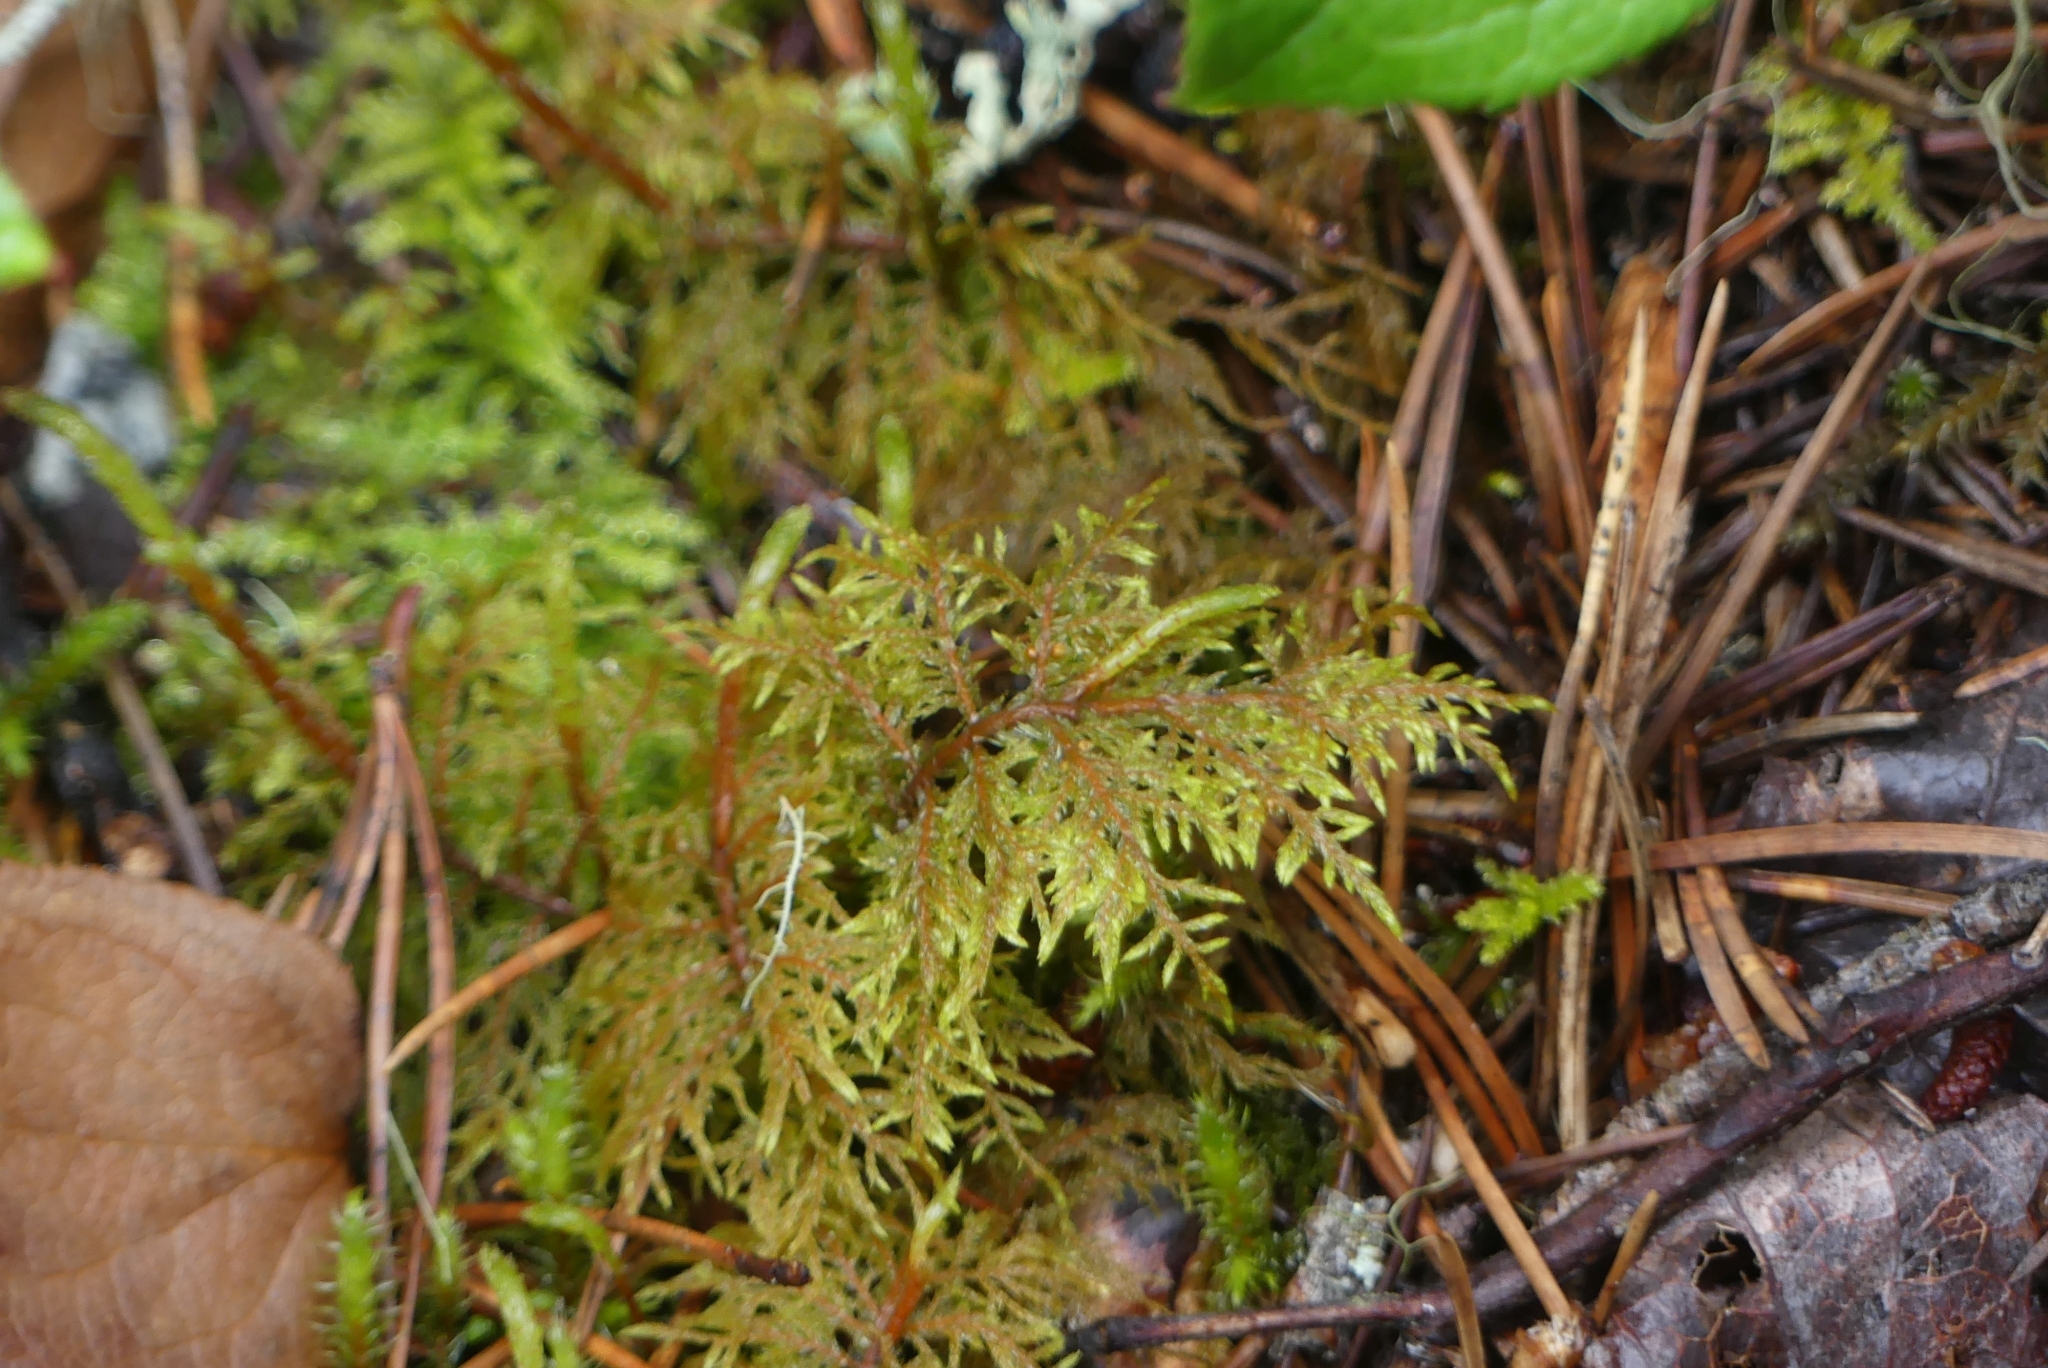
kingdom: Plantae
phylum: Bryophyta
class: Bryopsida
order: Hypnales
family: Hylocomiaceae
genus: Hylocomium
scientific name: Hylocomium splendens
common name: Stairstep moss
